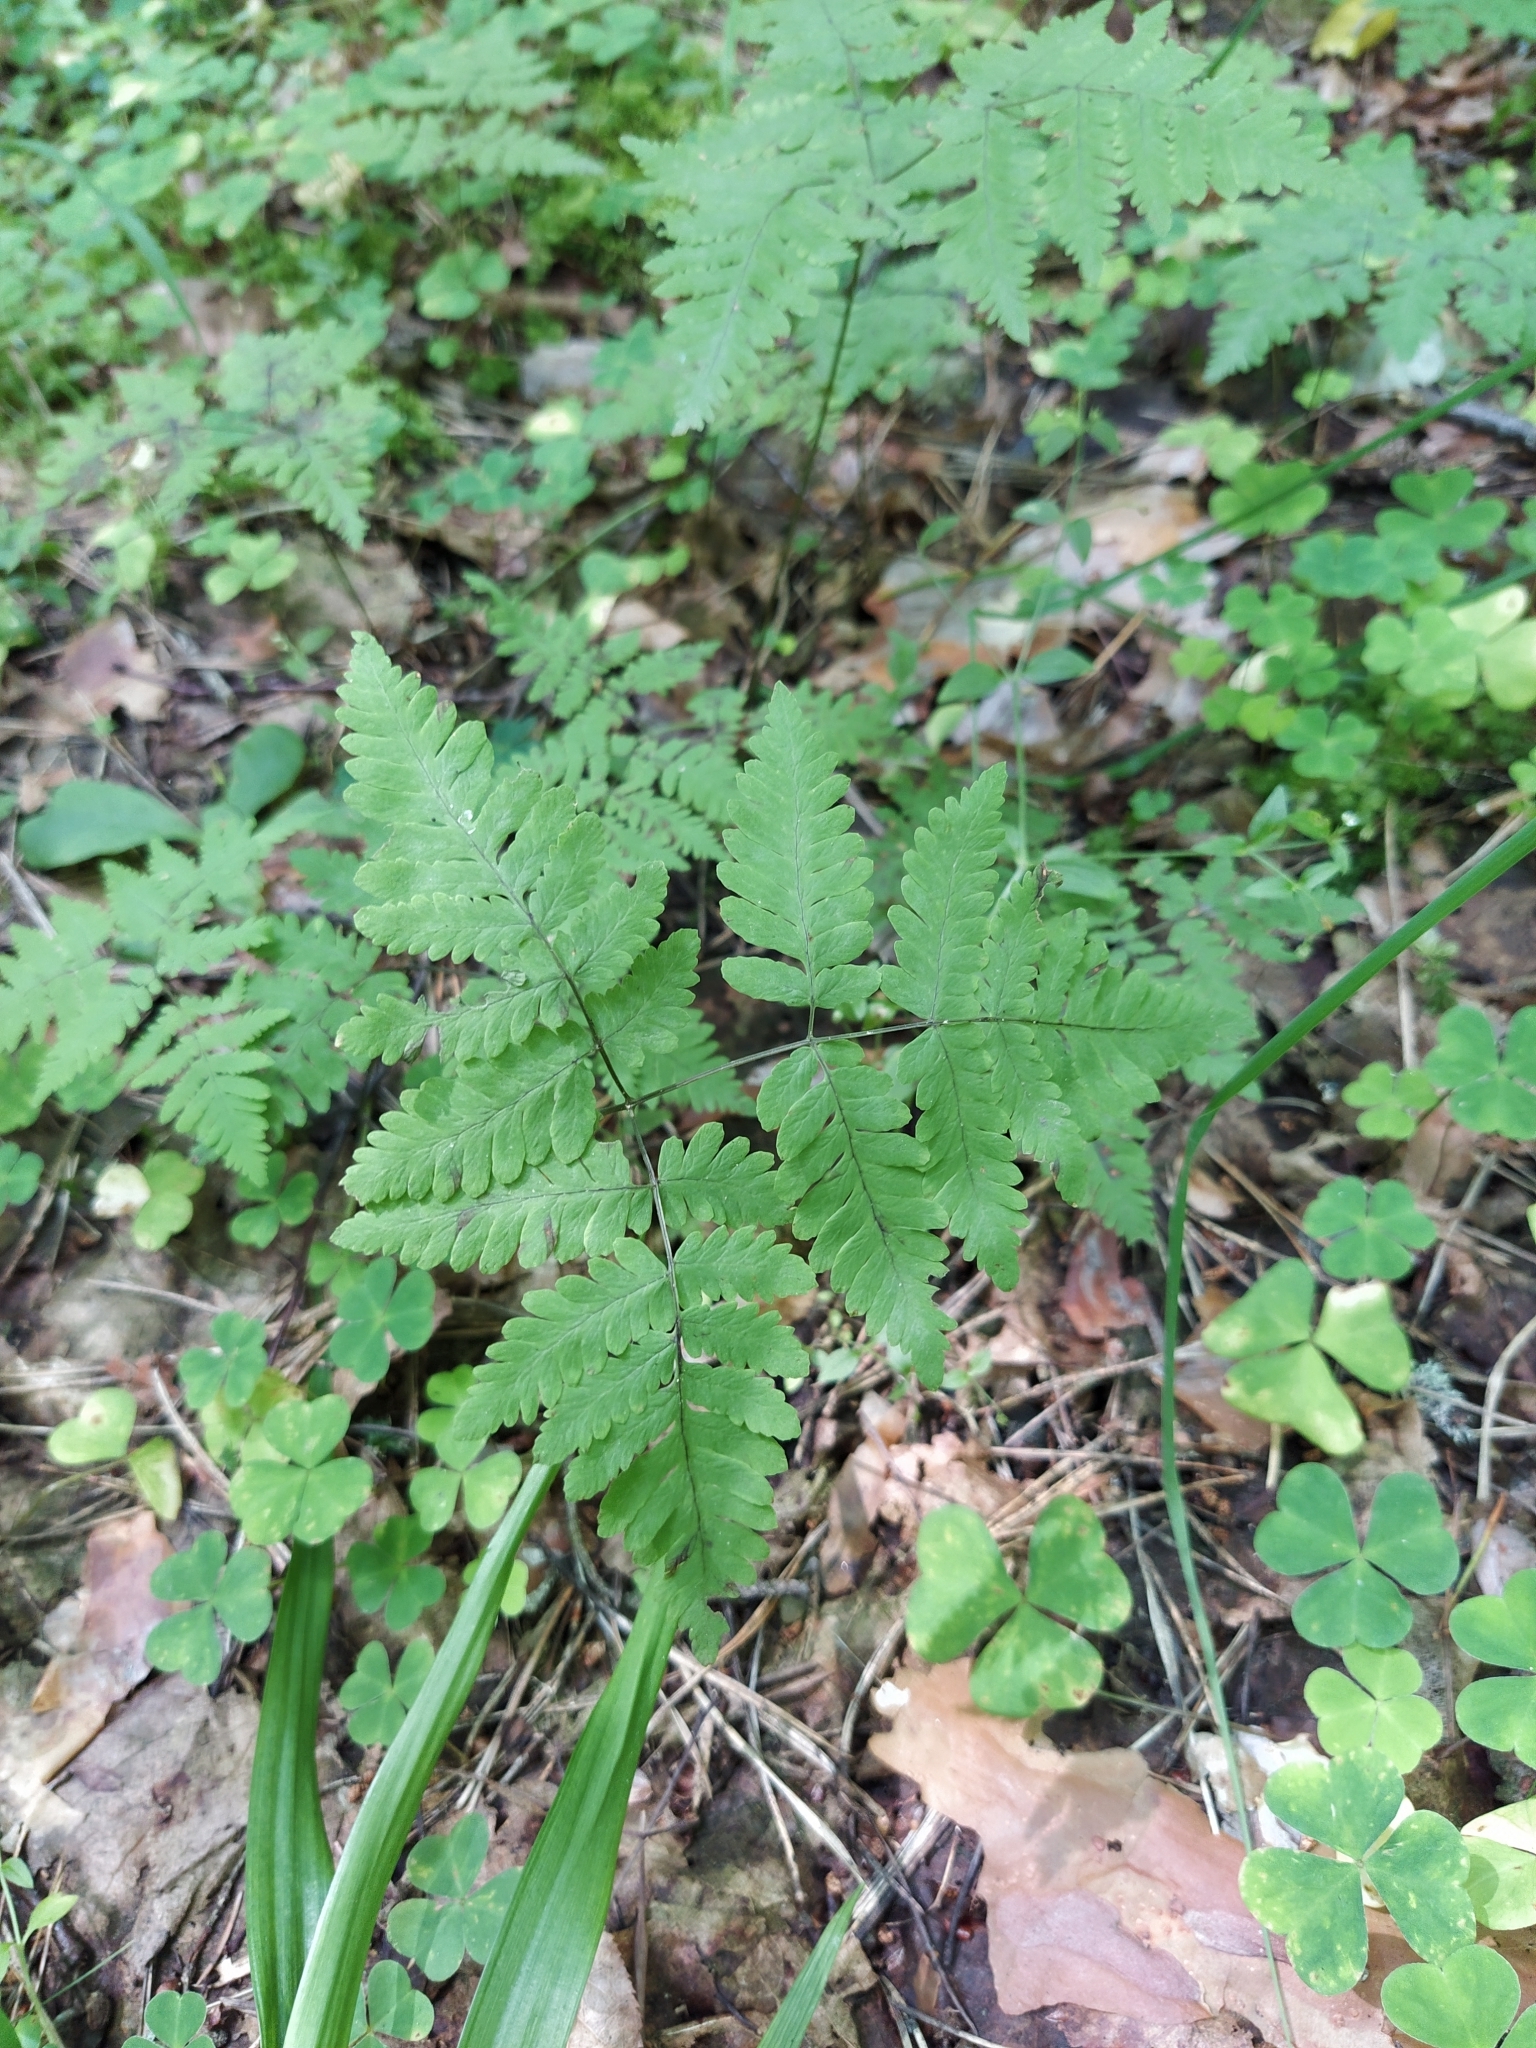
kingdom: Plantae
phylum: Tracheophyta
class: Polypodiopsida
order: Polypodiales
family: Cystopteridaceae
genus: Gymnocarpium
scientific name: Gymnocarpium dryopteris
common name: Oak fern
